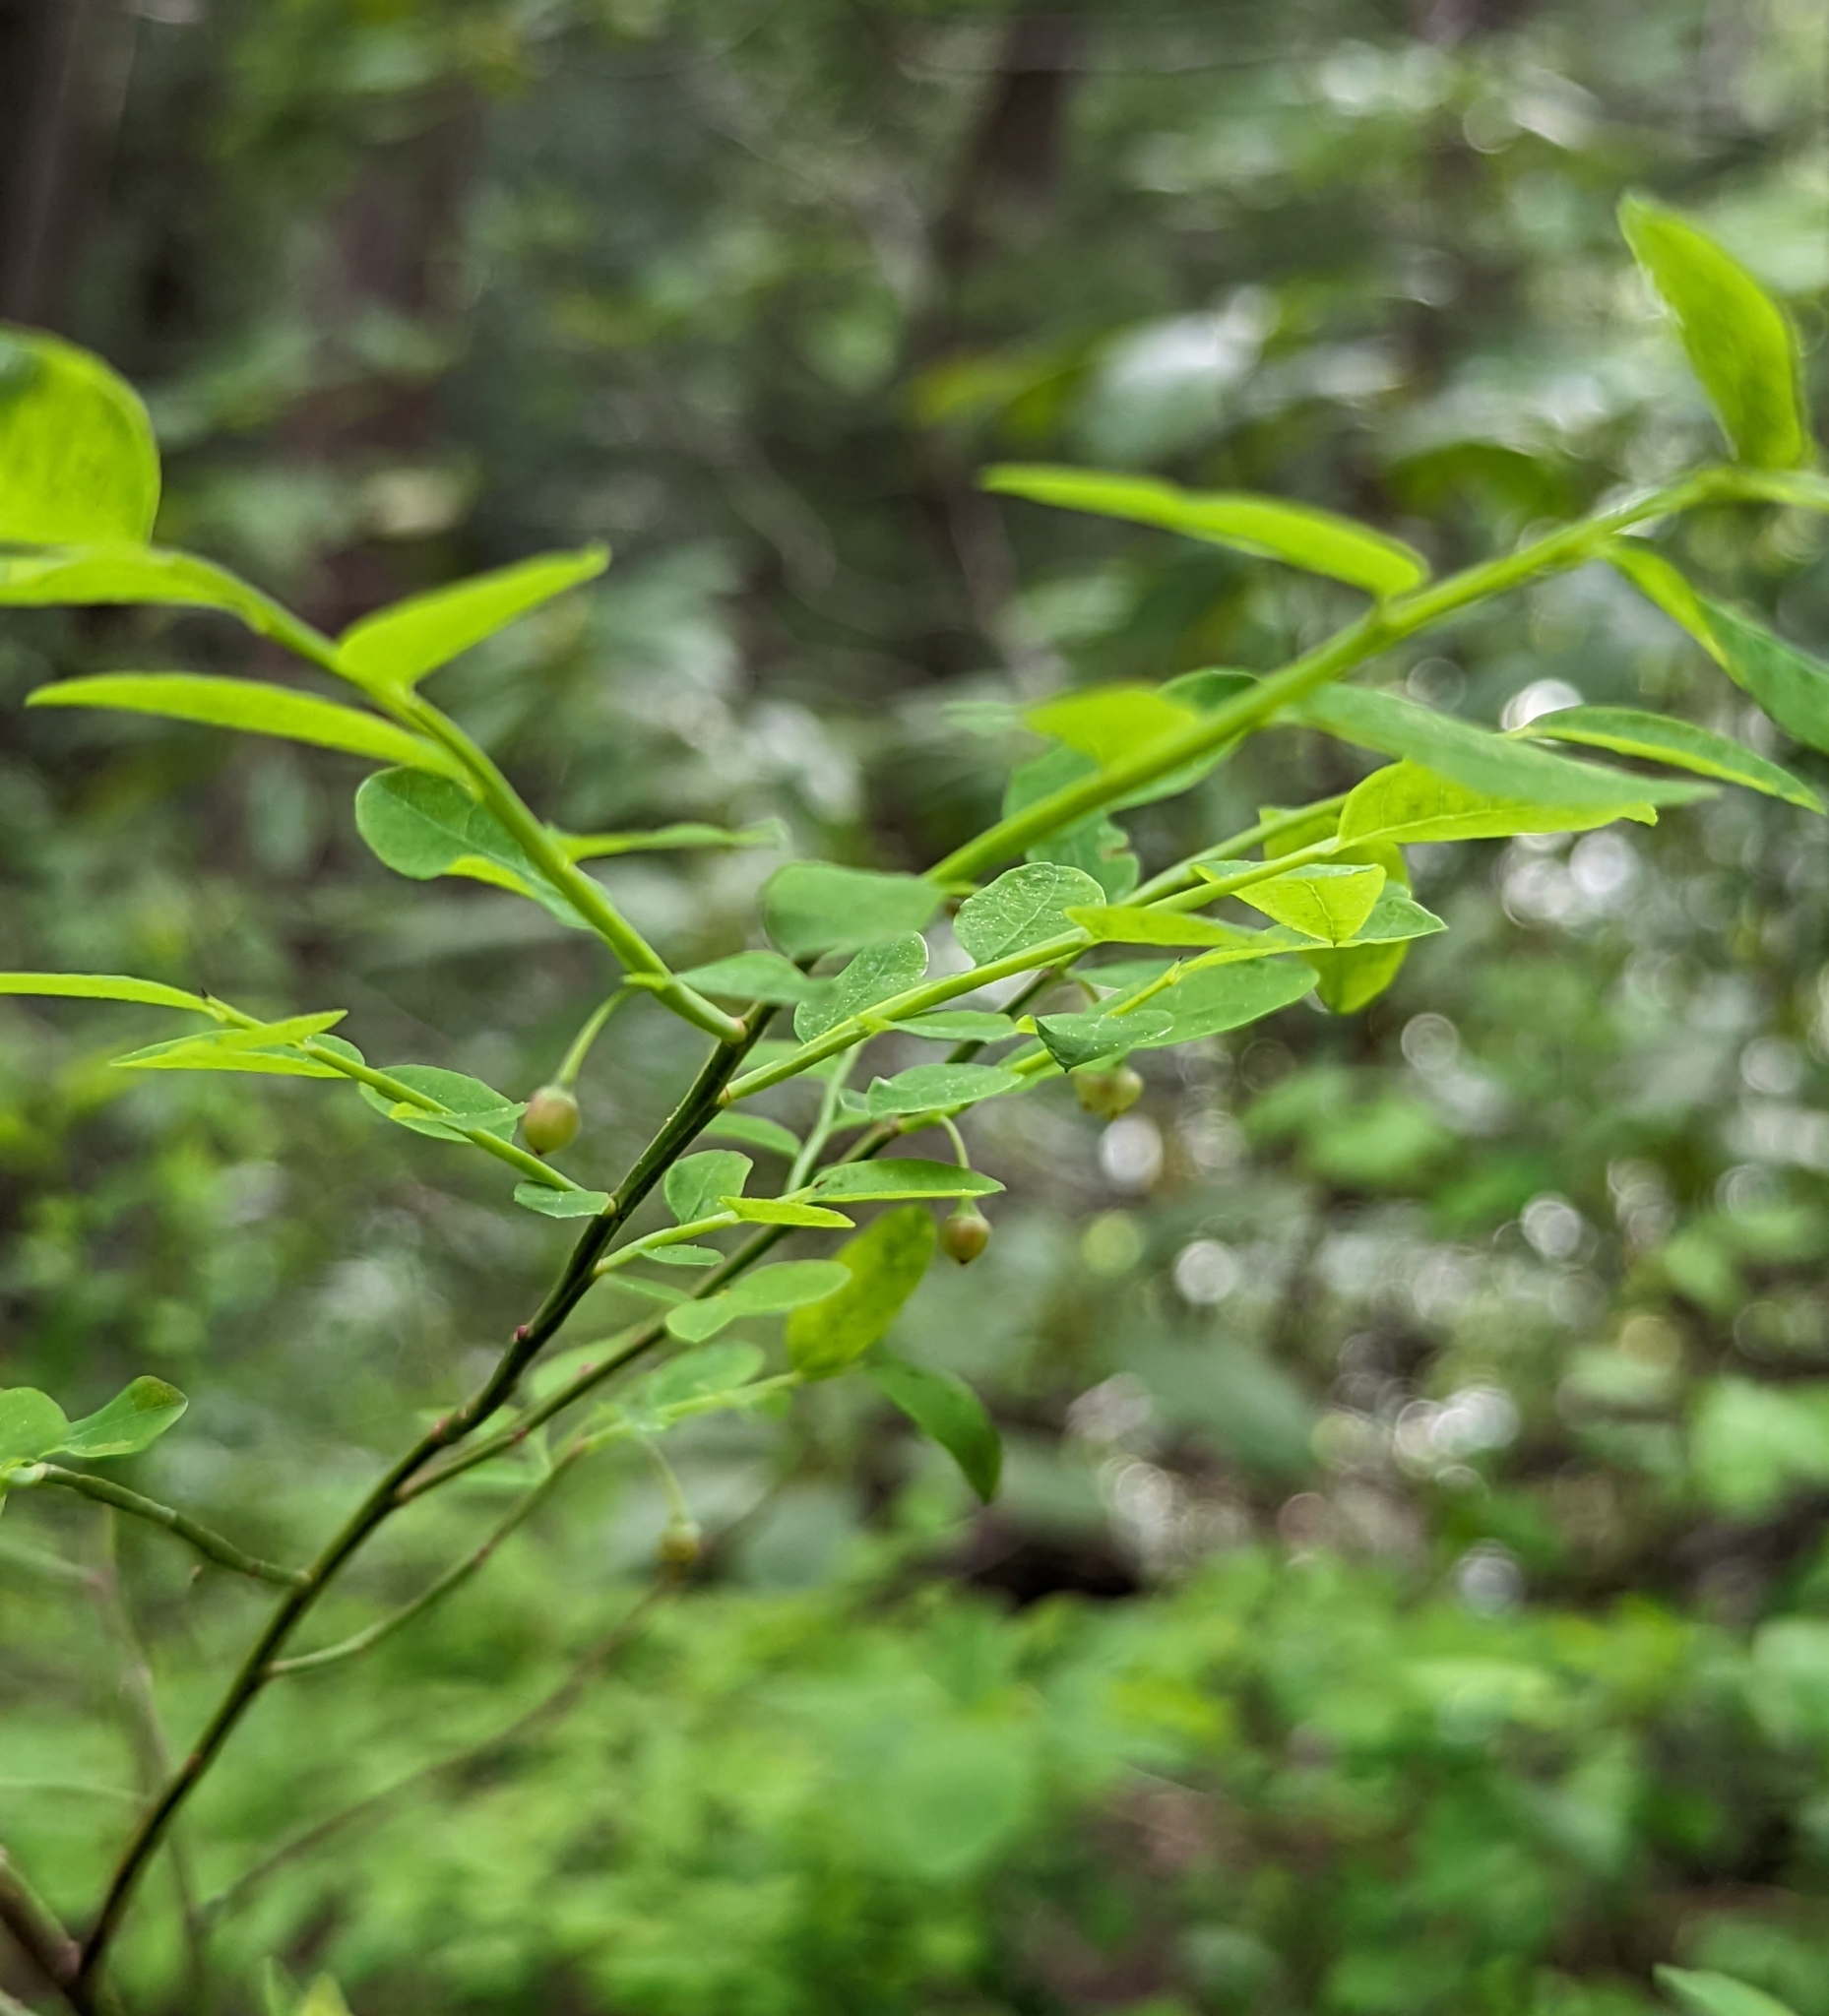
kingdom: Plantae
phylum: Tracheophyta
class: Magnoliopsida
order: Ericales
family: Ericaceae
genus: Vaccinium
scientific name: Vaccinium parvifolium
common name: Red-huckleberry
